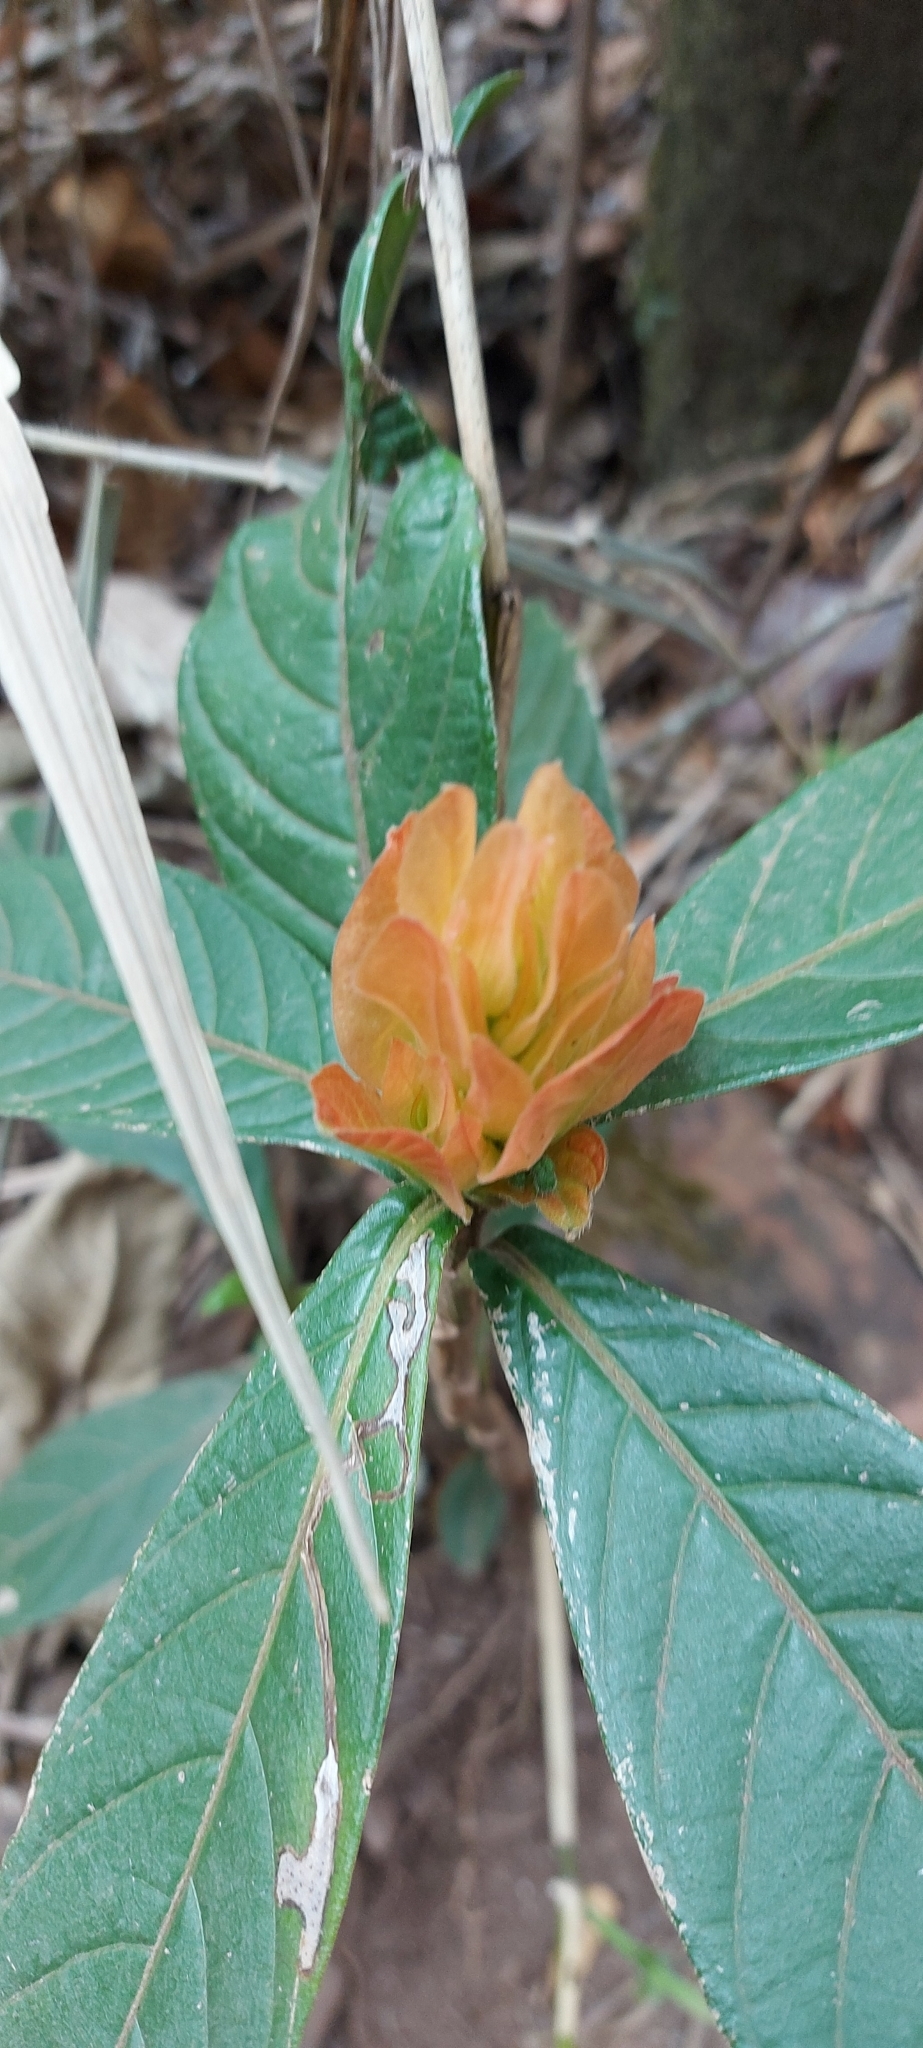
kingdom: Plantae
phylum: Tracheophyta
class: Magnoliopsida
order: Lamiales
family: Acanthaceae
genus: Justicia
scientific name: Justicia riparia
